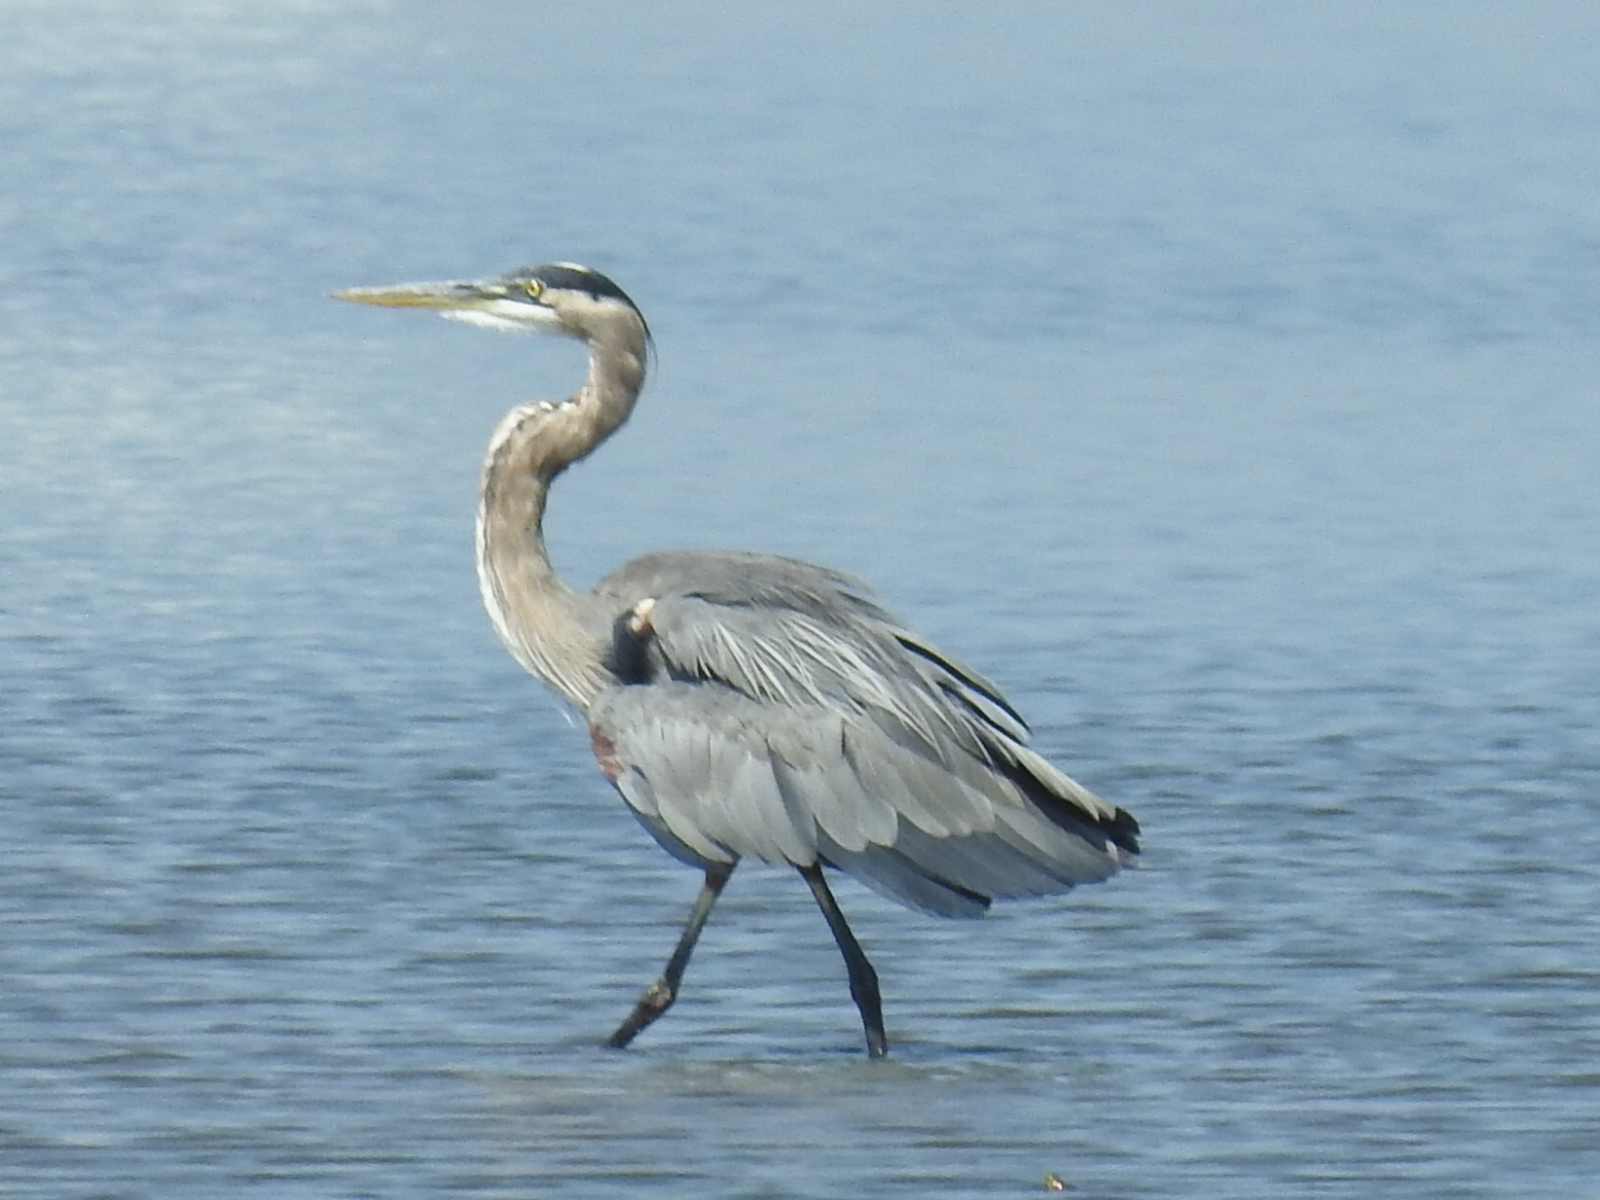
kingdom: Animalia
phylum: Chordata
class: Aves
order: Pelecaniformes
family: Ardeidae
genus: Ardea
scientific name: Ardea herodias
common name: Great blue heron
